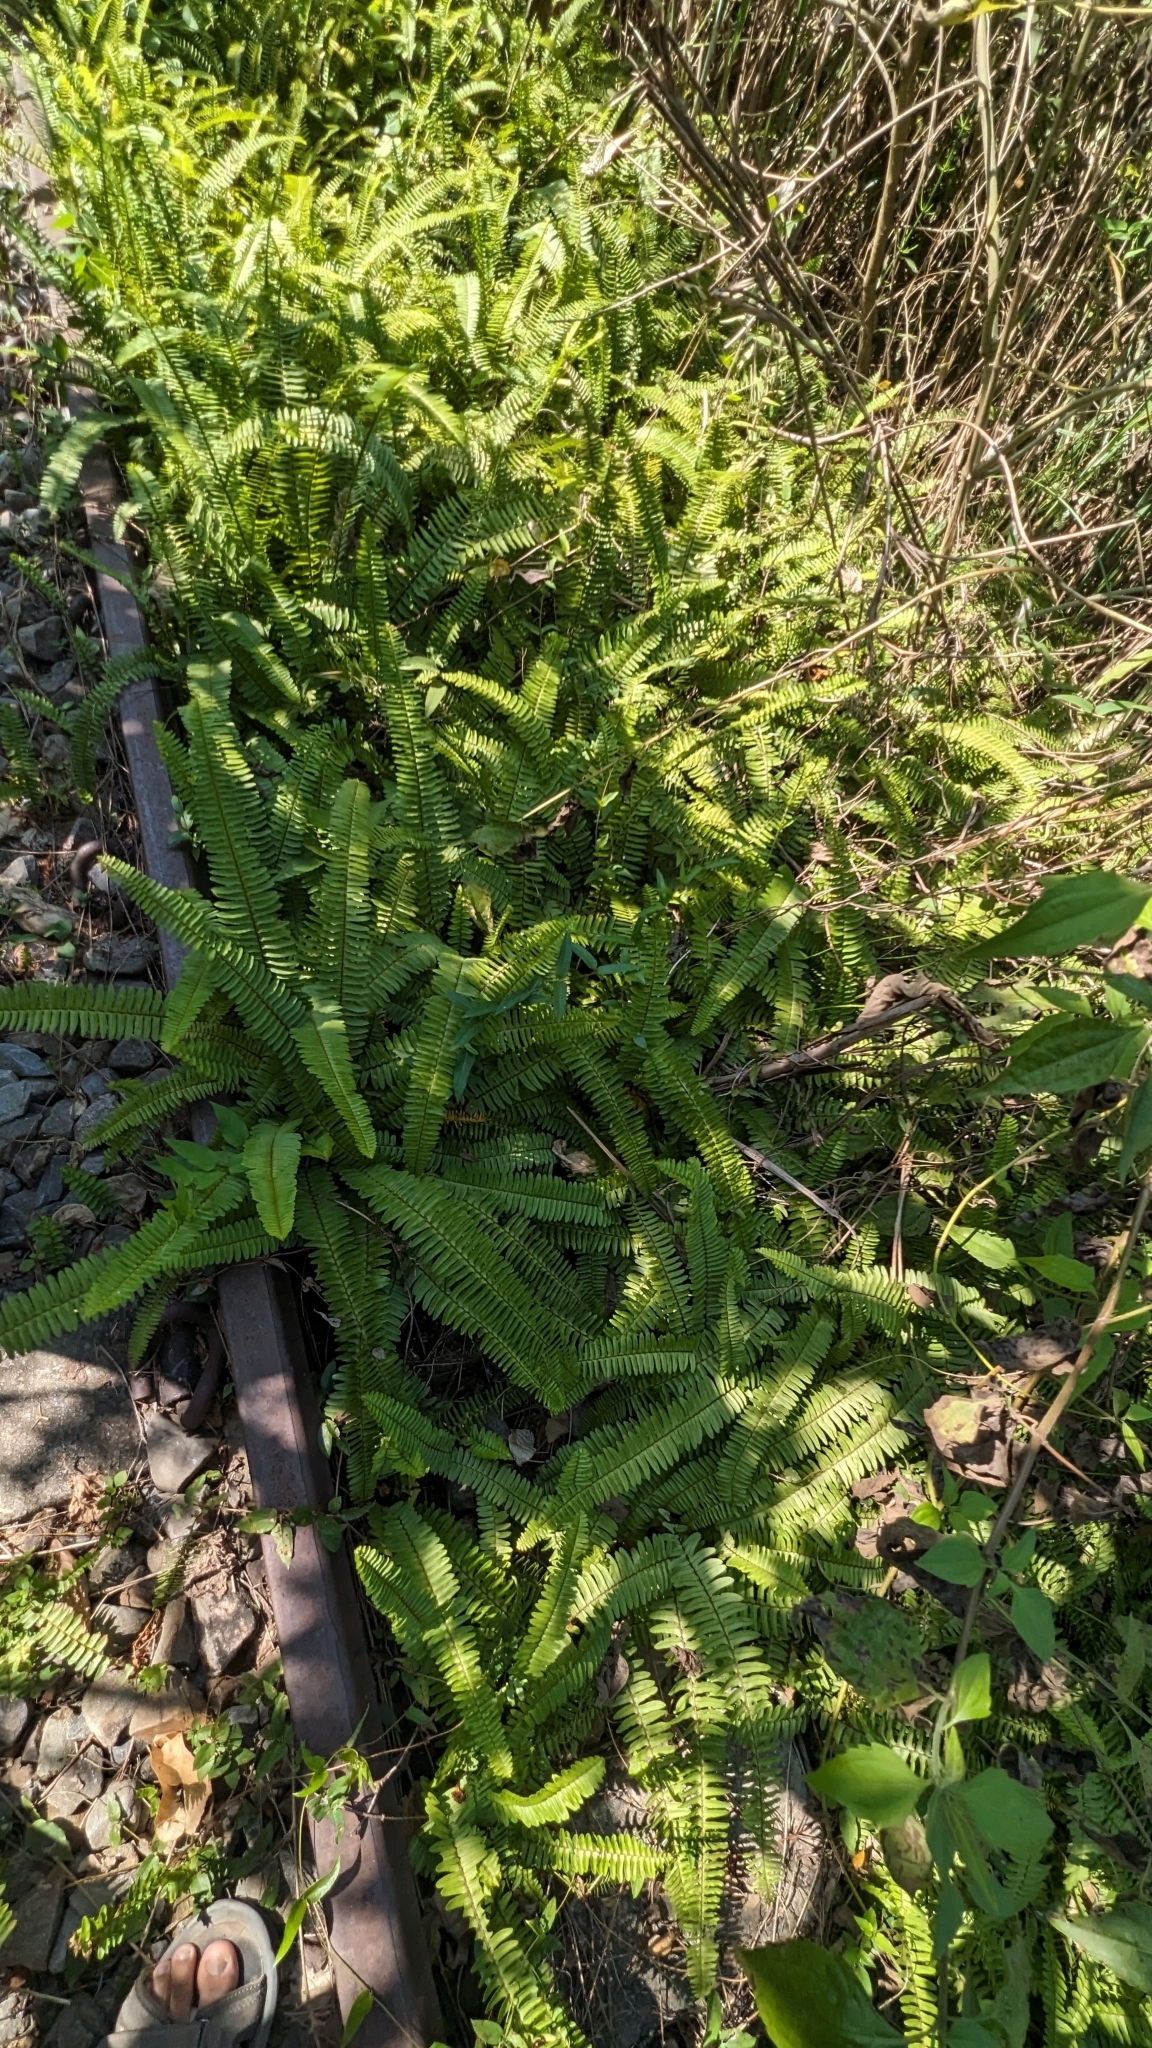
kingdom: Plantae
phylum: Tracheophyta
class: Polypodiopsida
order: Polypodiales
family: Nephrolepidaceae
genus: Nephrolepis
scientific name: Nephrolepis cordifolia
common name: Narrow swordfern
